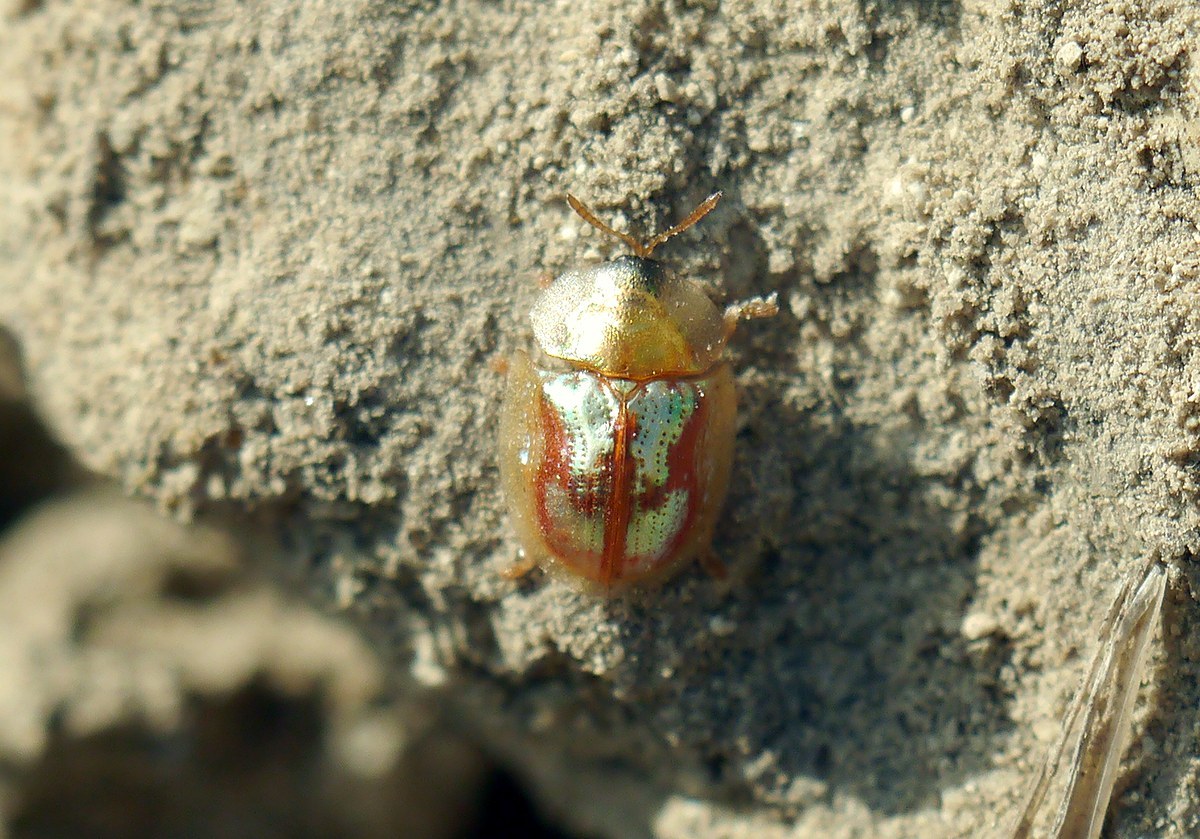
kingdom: Animalia
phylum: Arthropoda
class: Insecta
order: Coleoptera
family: Chrysomelidae
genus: Cassida
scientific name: Cassida subreticulata
